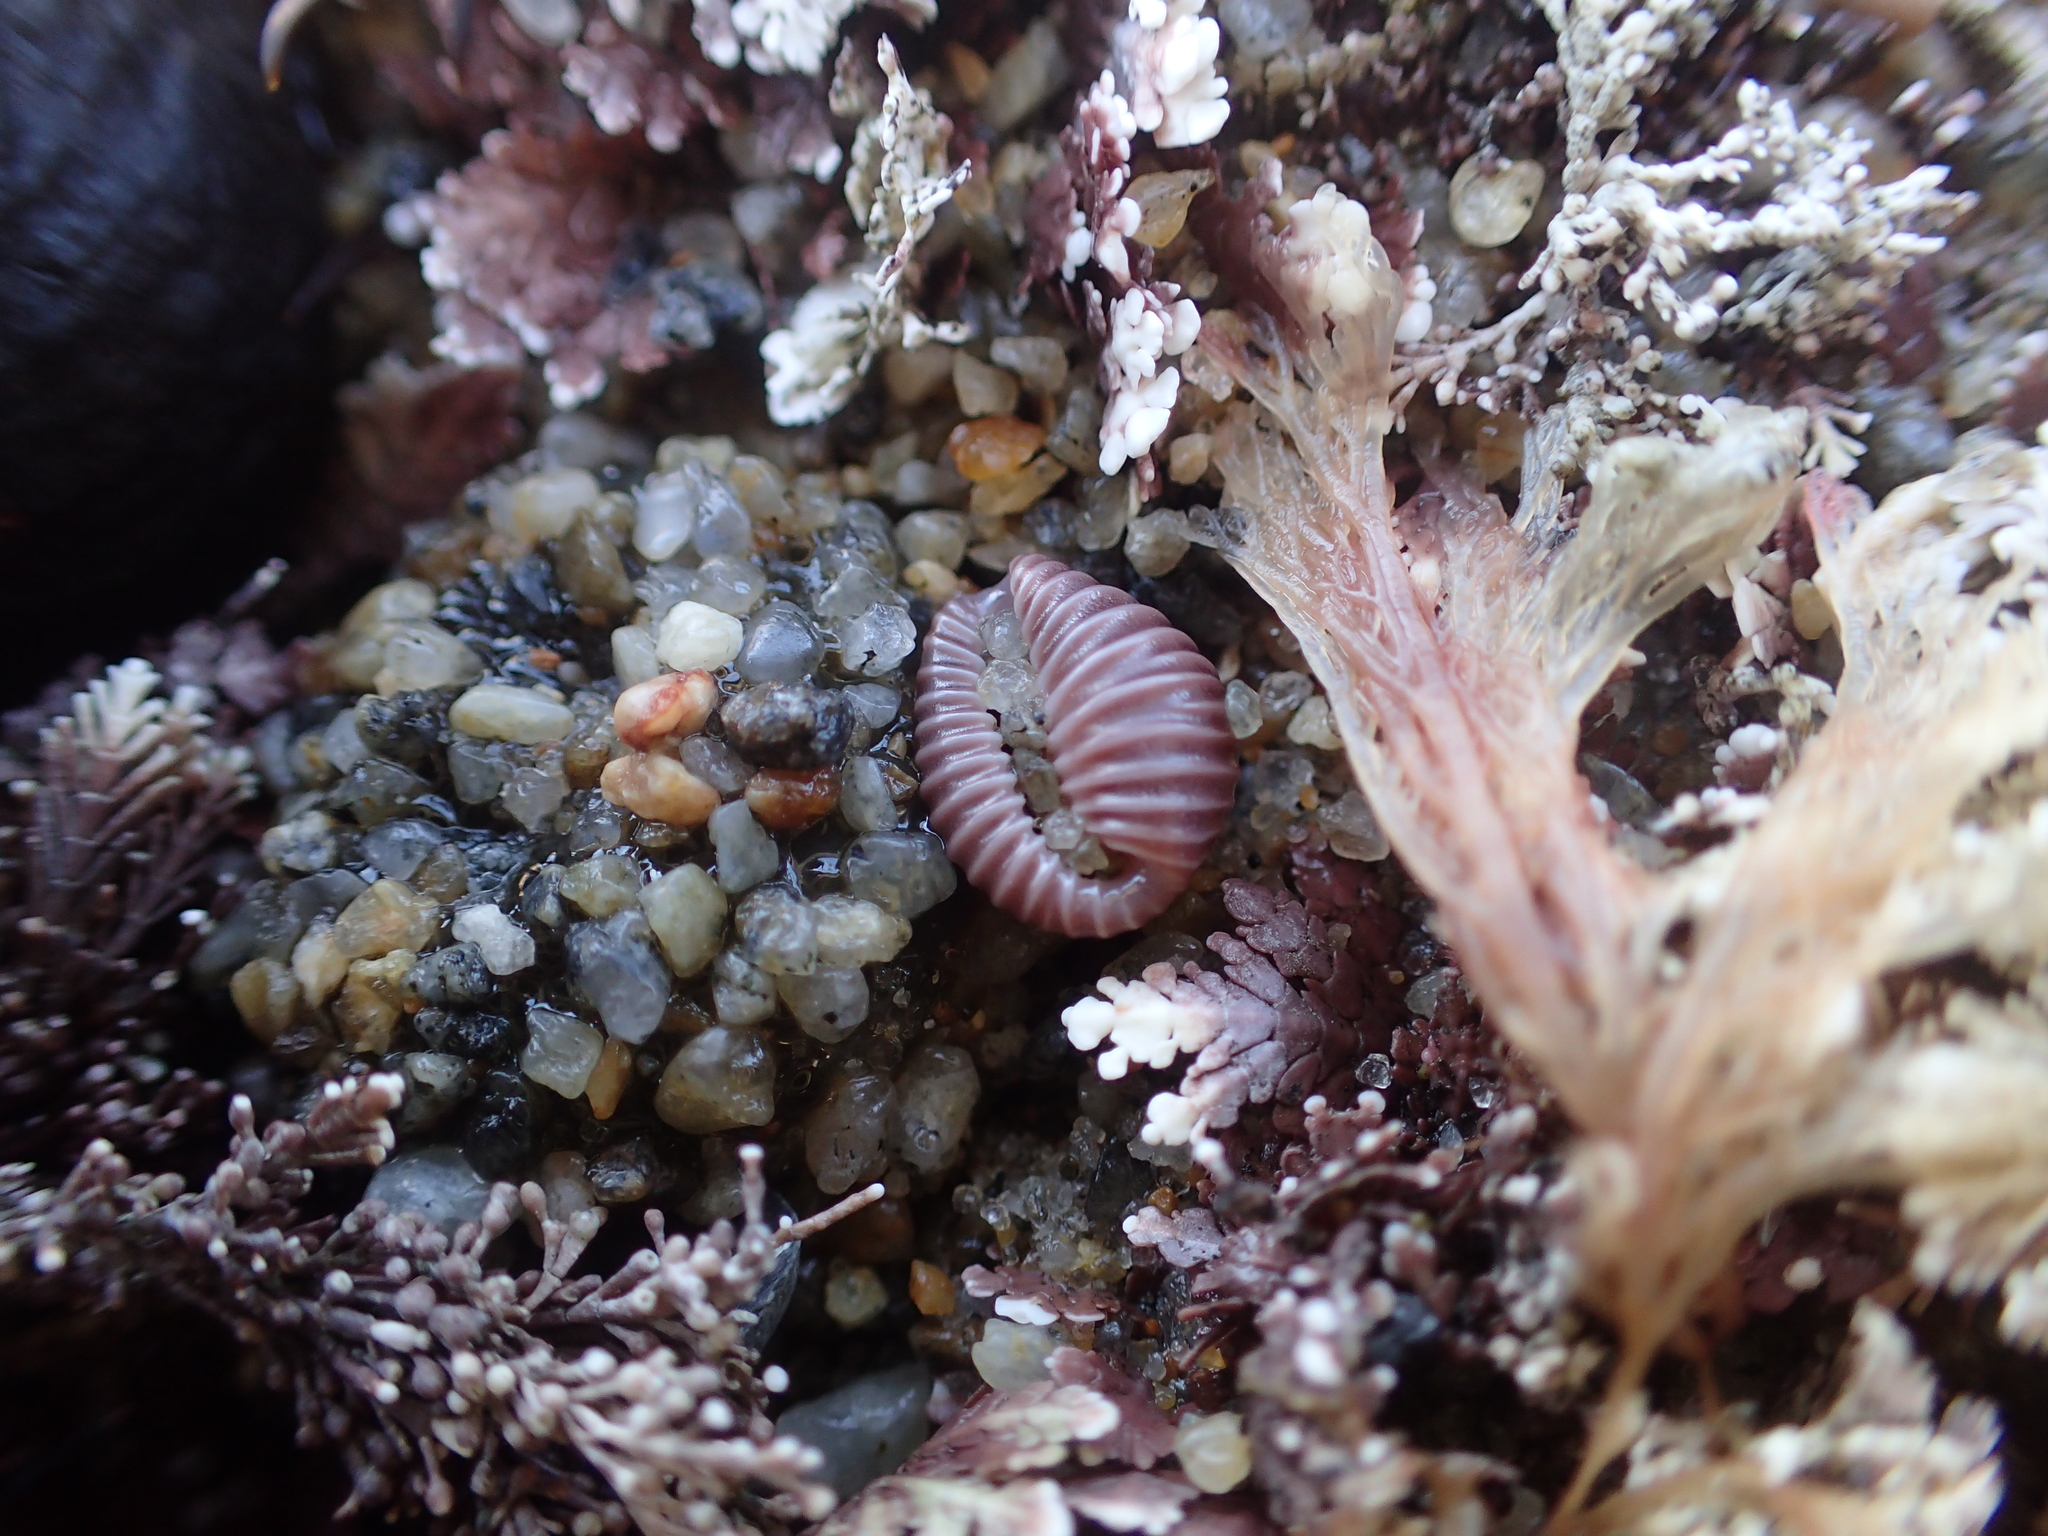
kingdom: Animalia
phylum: Mollusca
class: Gastropoda
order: Littorinimorpha
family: Triviidae
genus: Pseudopusula
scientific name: Pseudopusula californiana
